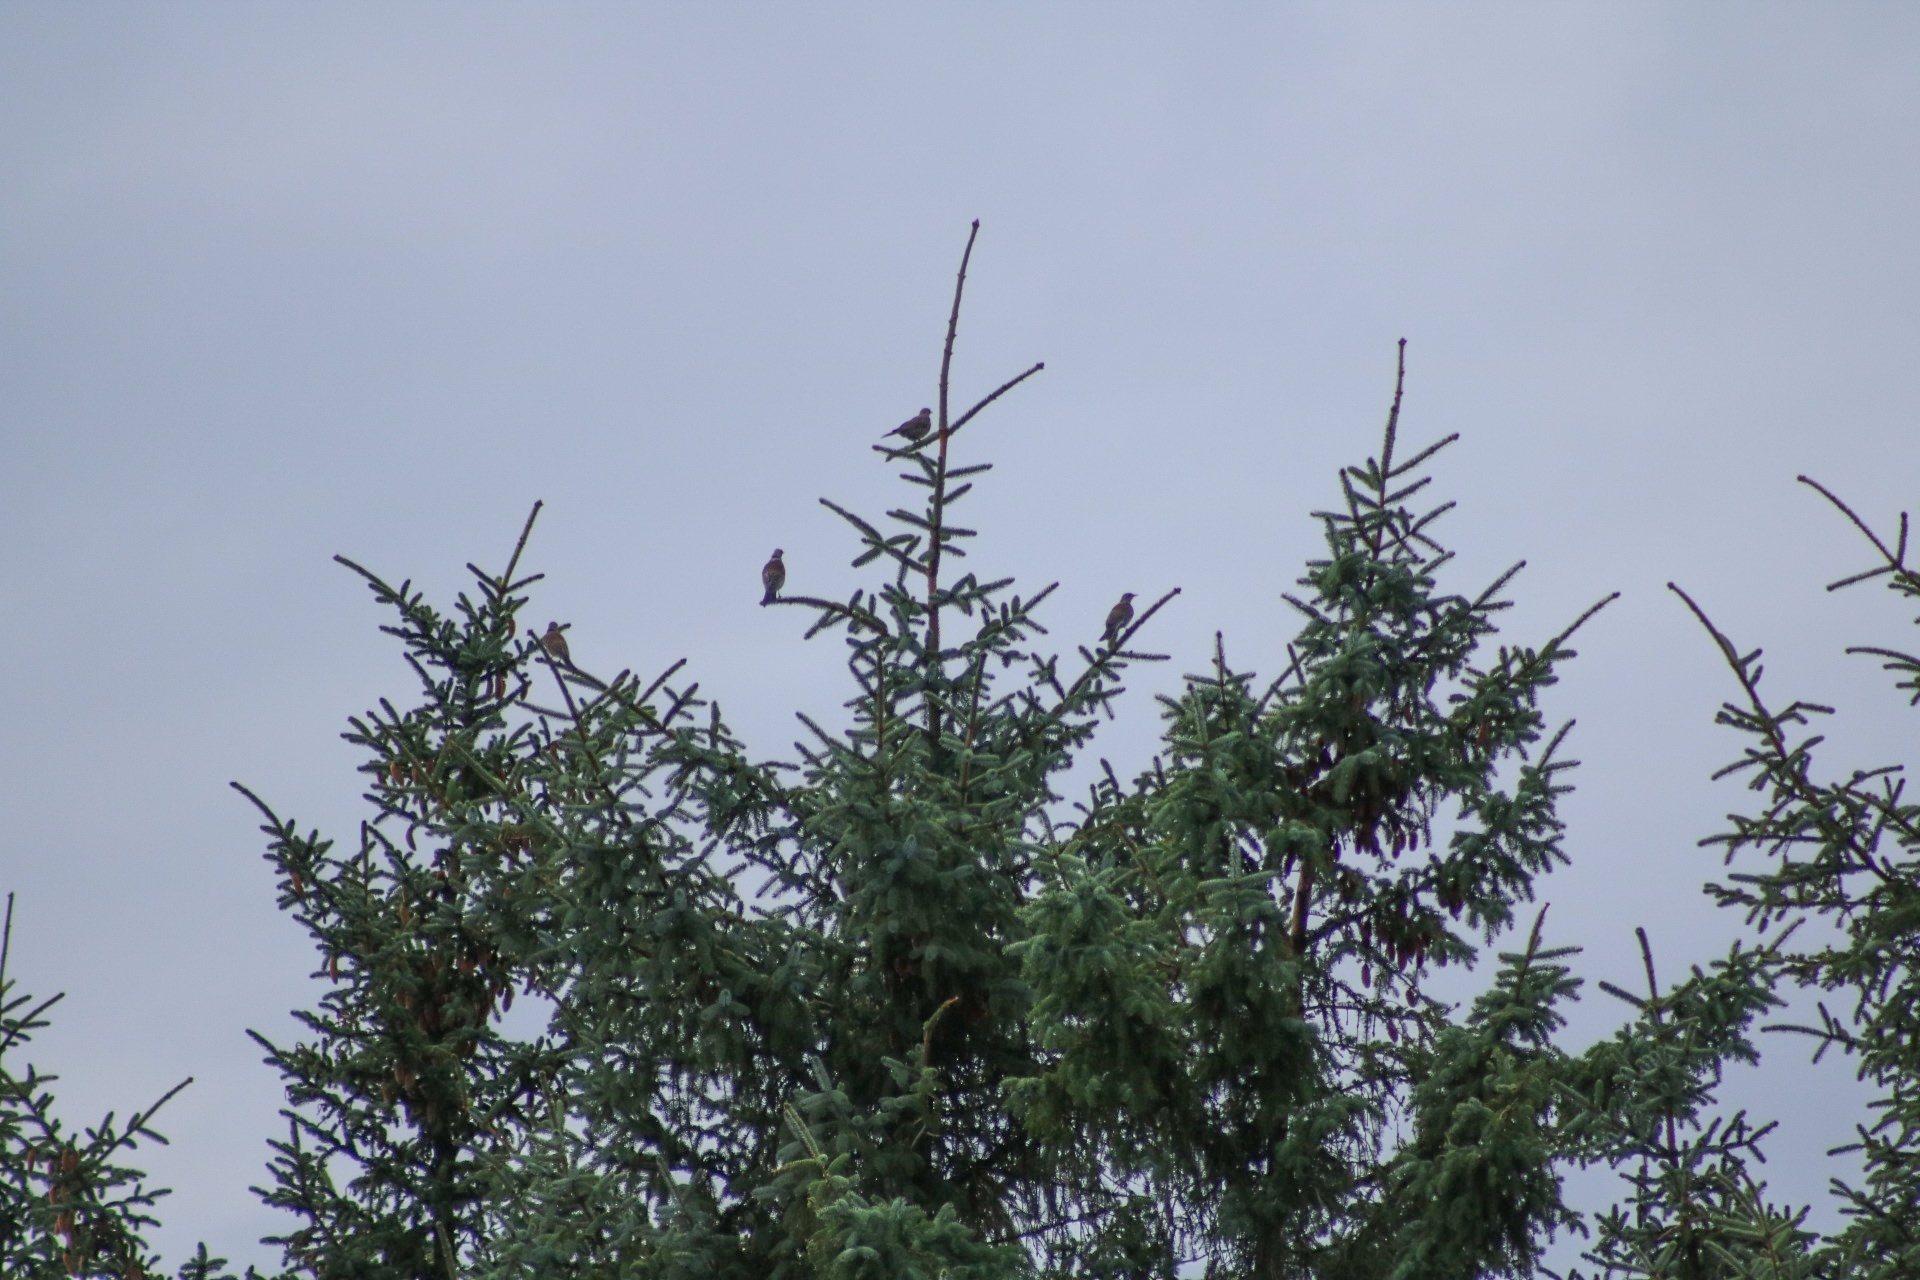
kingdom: Animalia
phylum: Chordata
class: Aves
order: Passeriformes
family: Turdidae
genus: Turdus
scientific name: Turdus pilaris
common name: Fieldfare
